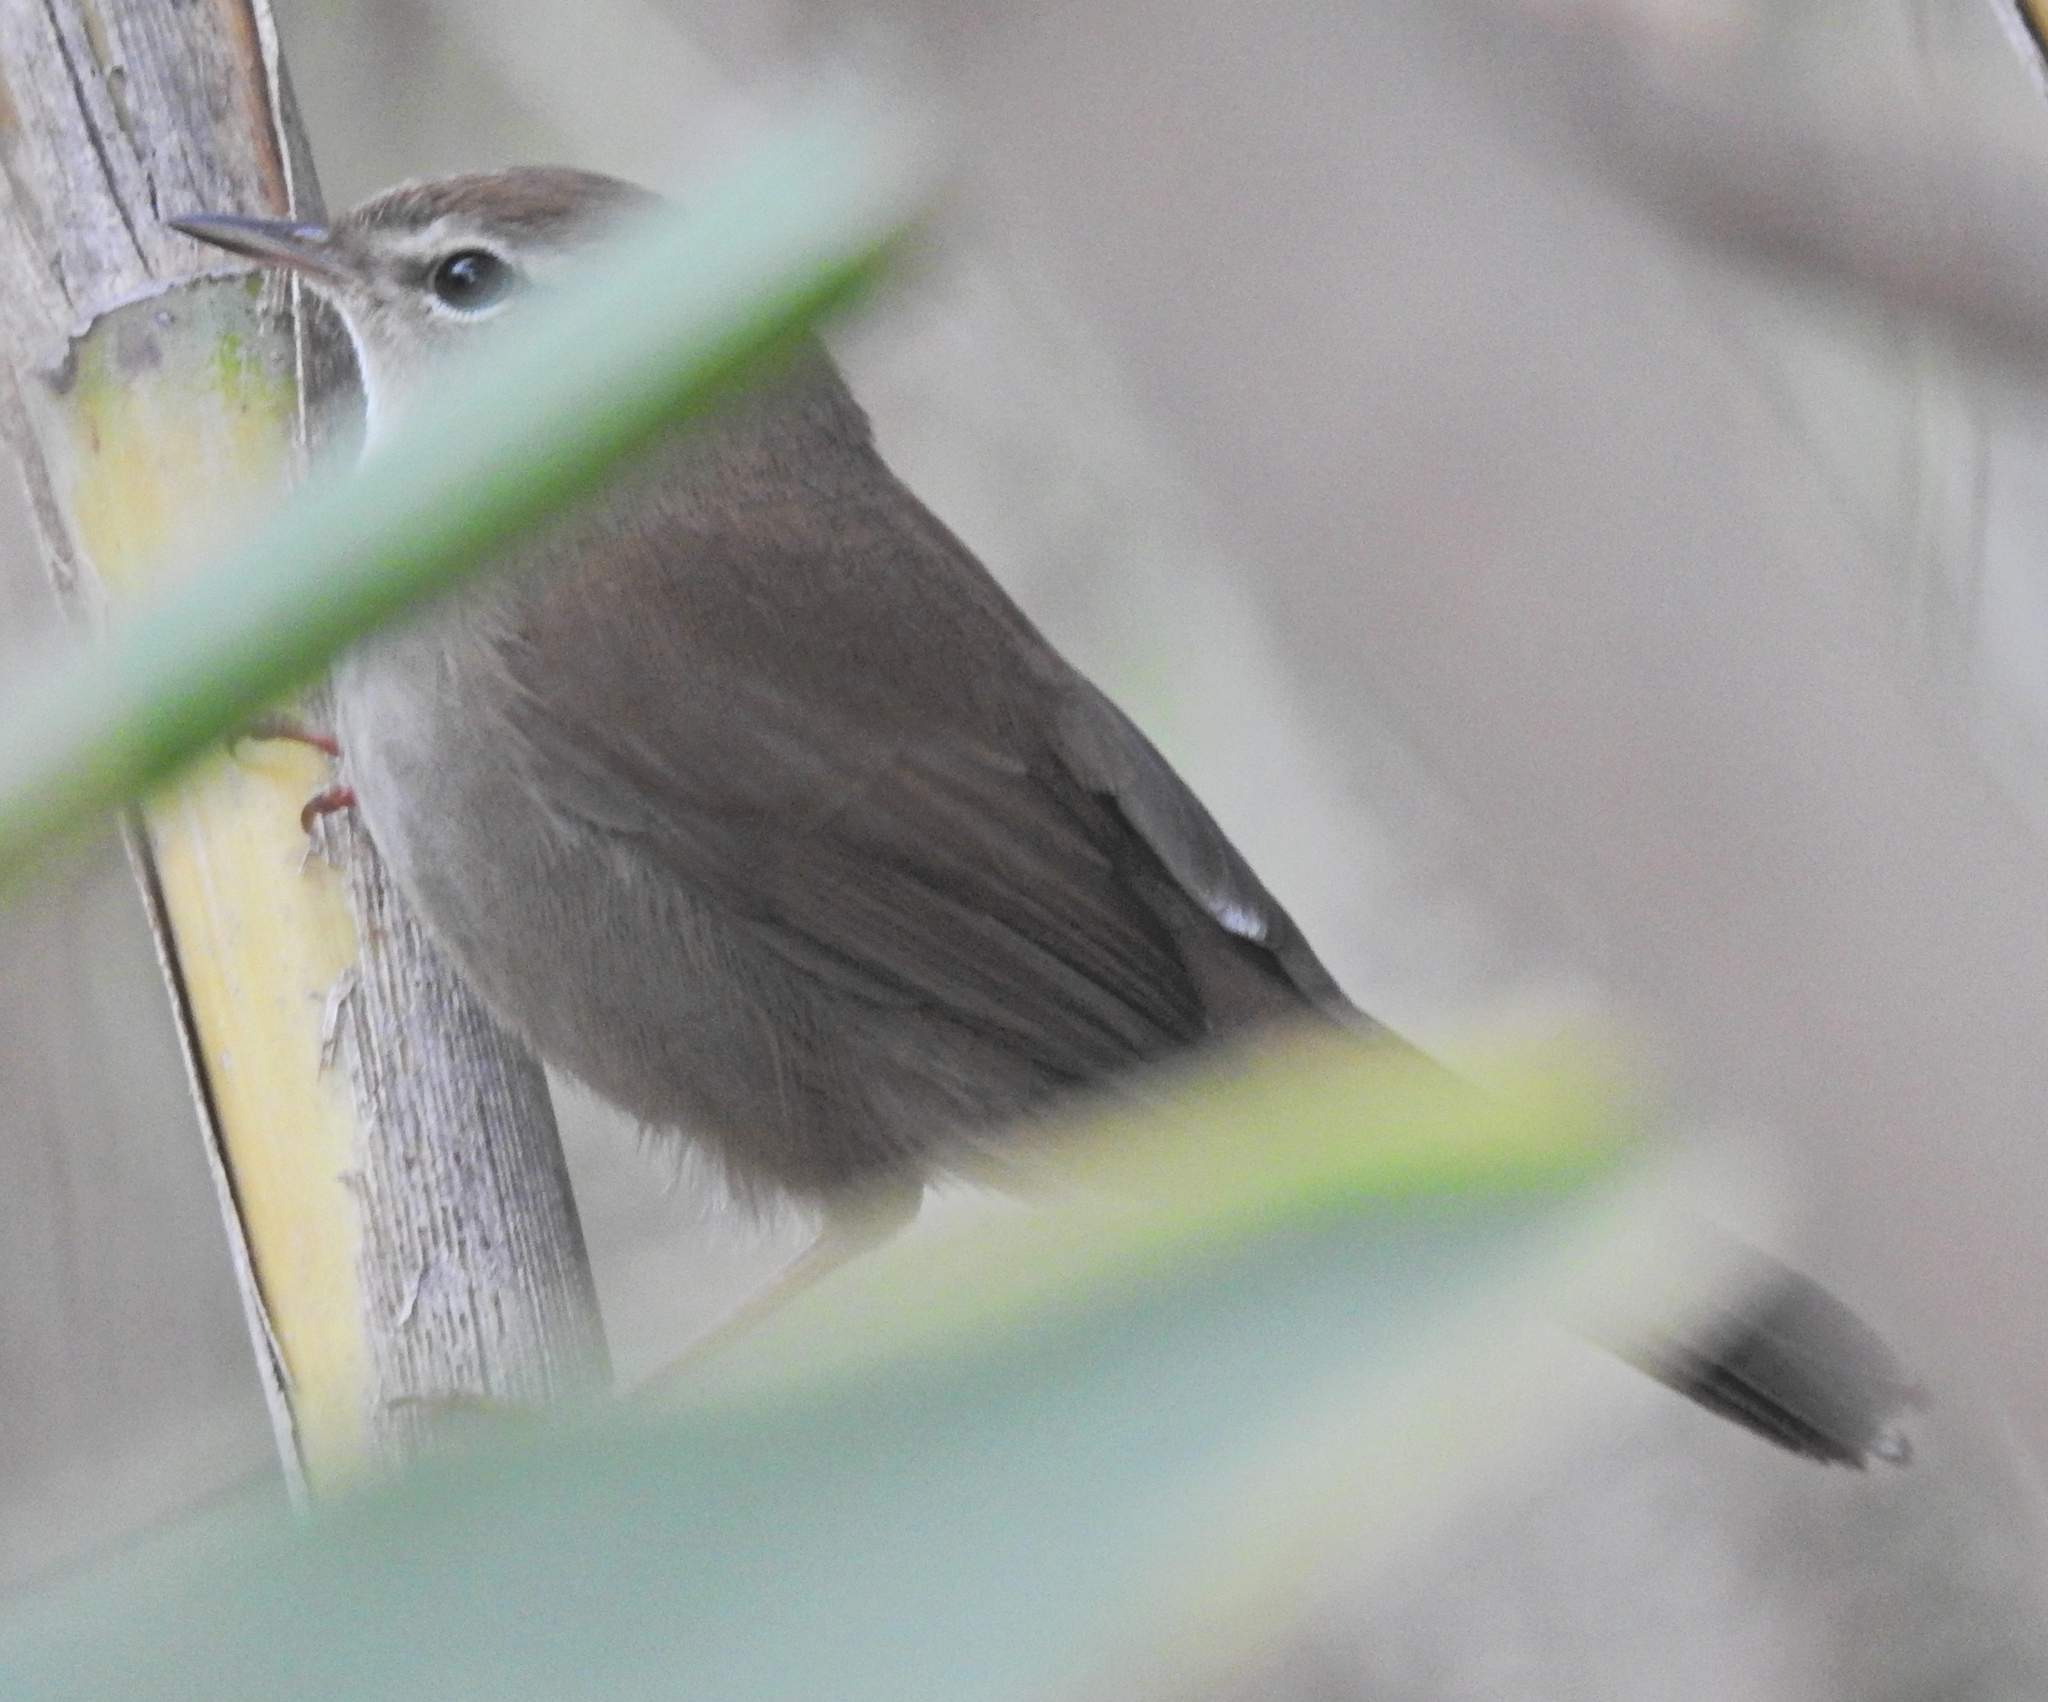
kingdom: Animalia
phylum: Chordata
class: Aves
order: Passeriformes
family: Cettiidae
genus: Cettia
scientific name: Cettia cetti
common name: Cetti's warbler
